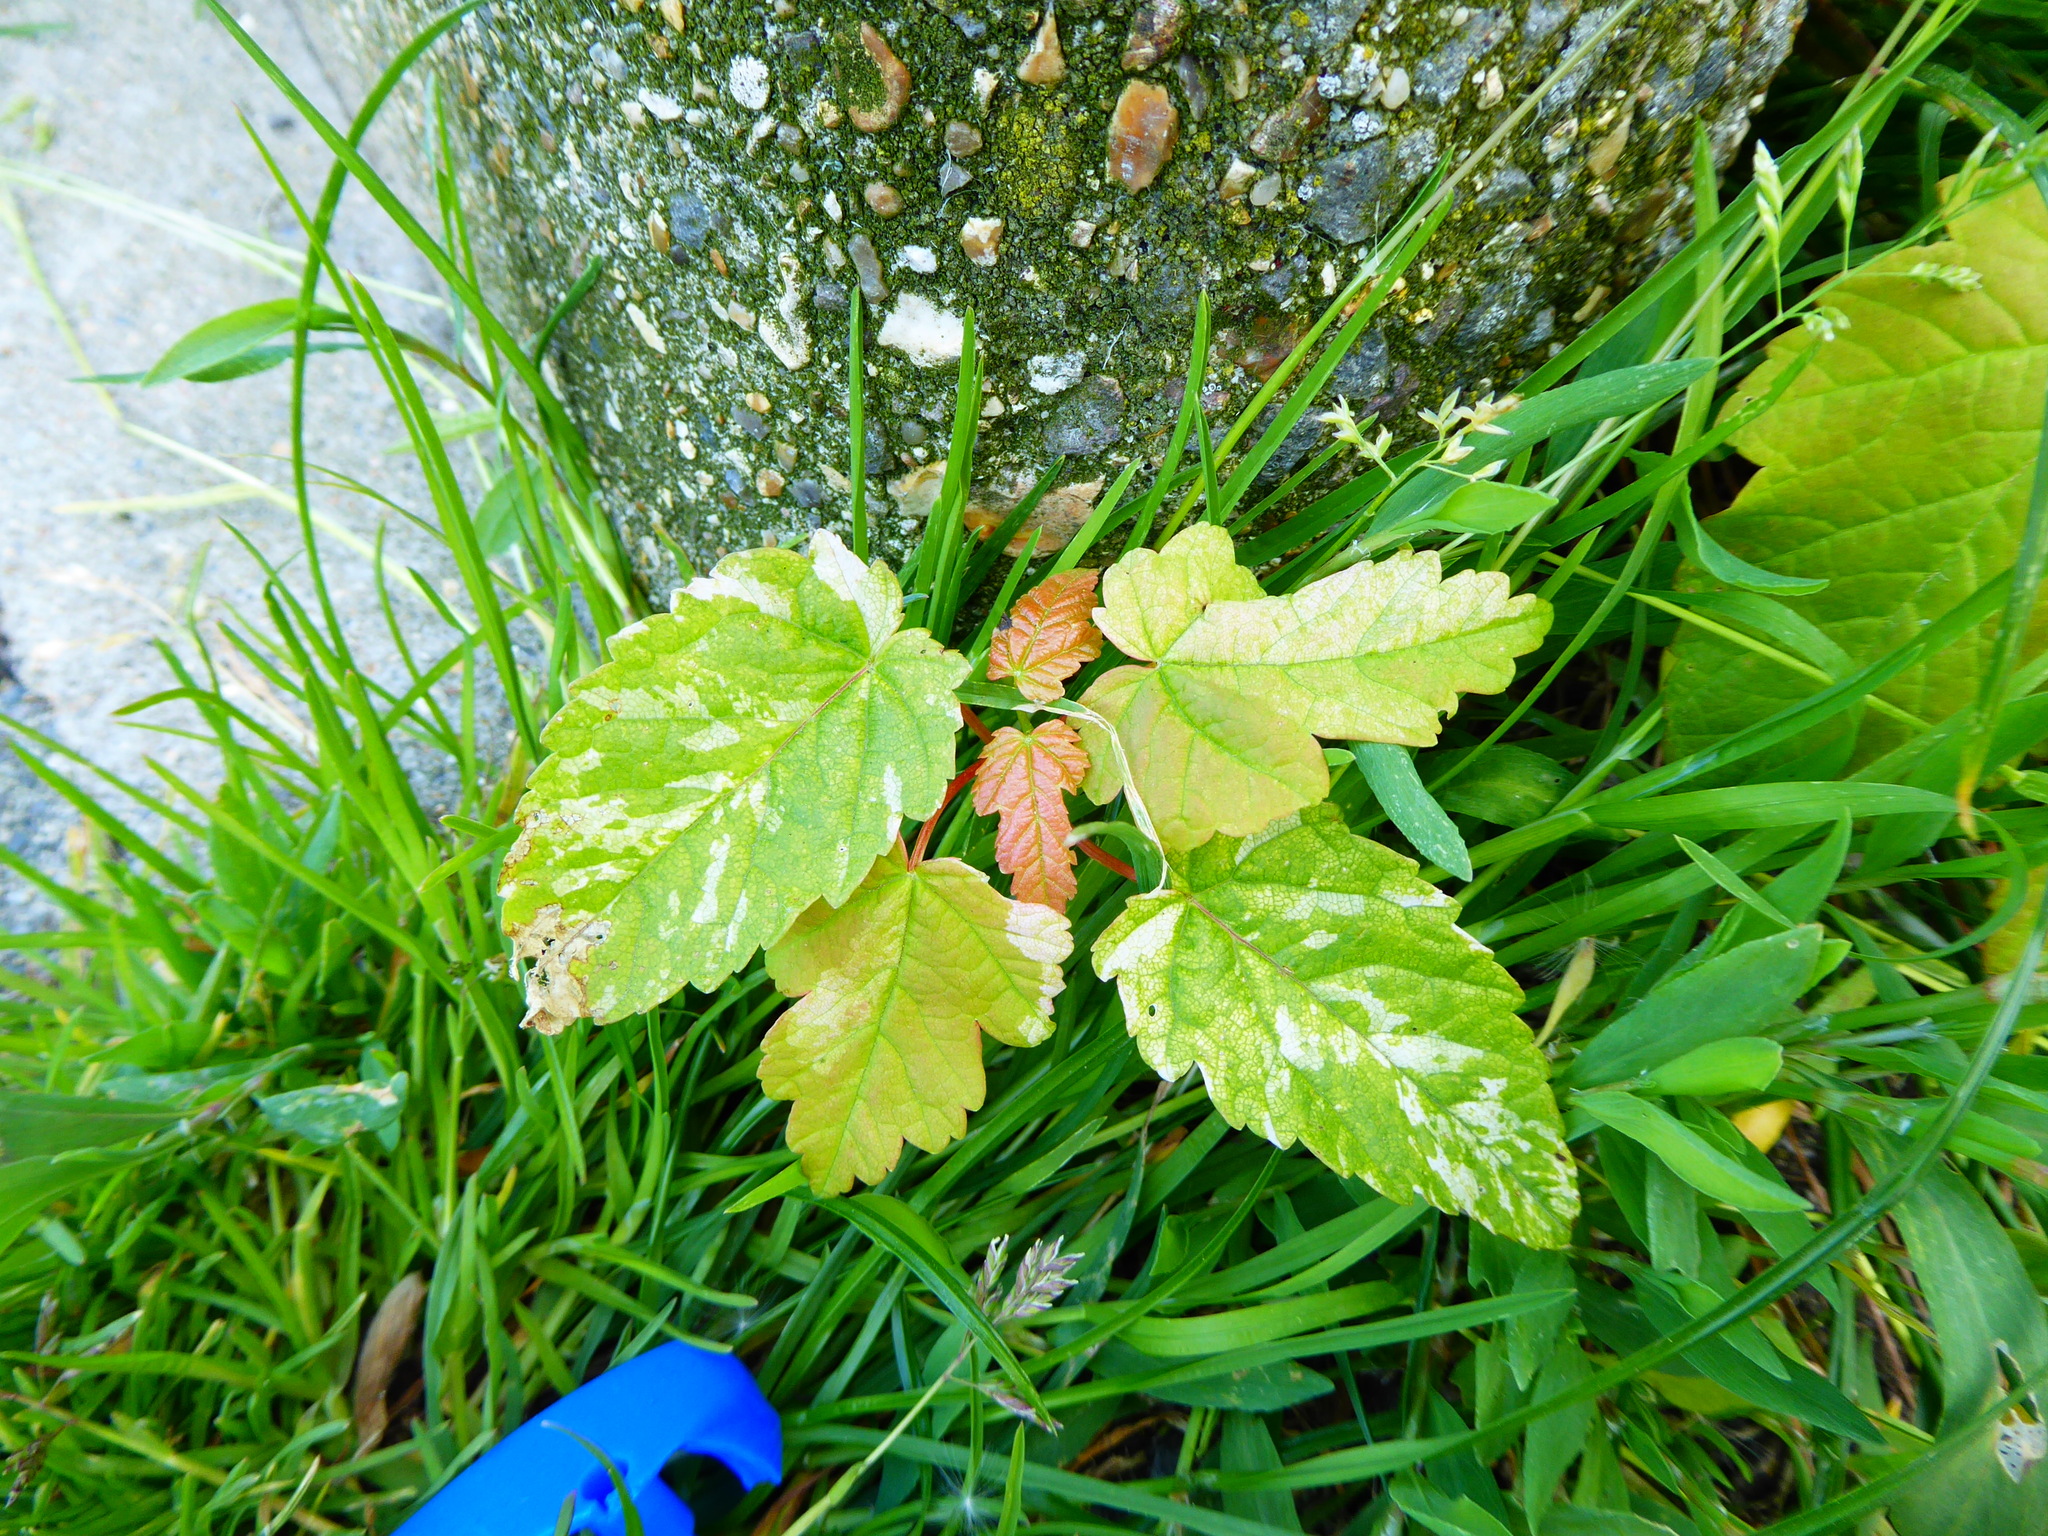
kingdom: Plantae
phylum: Tracheophyta
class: Magnoliopsida
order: Sapindales
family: Sapindaceae
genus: Acer
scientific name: Acer pseudoplatanus
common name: Sycamore
